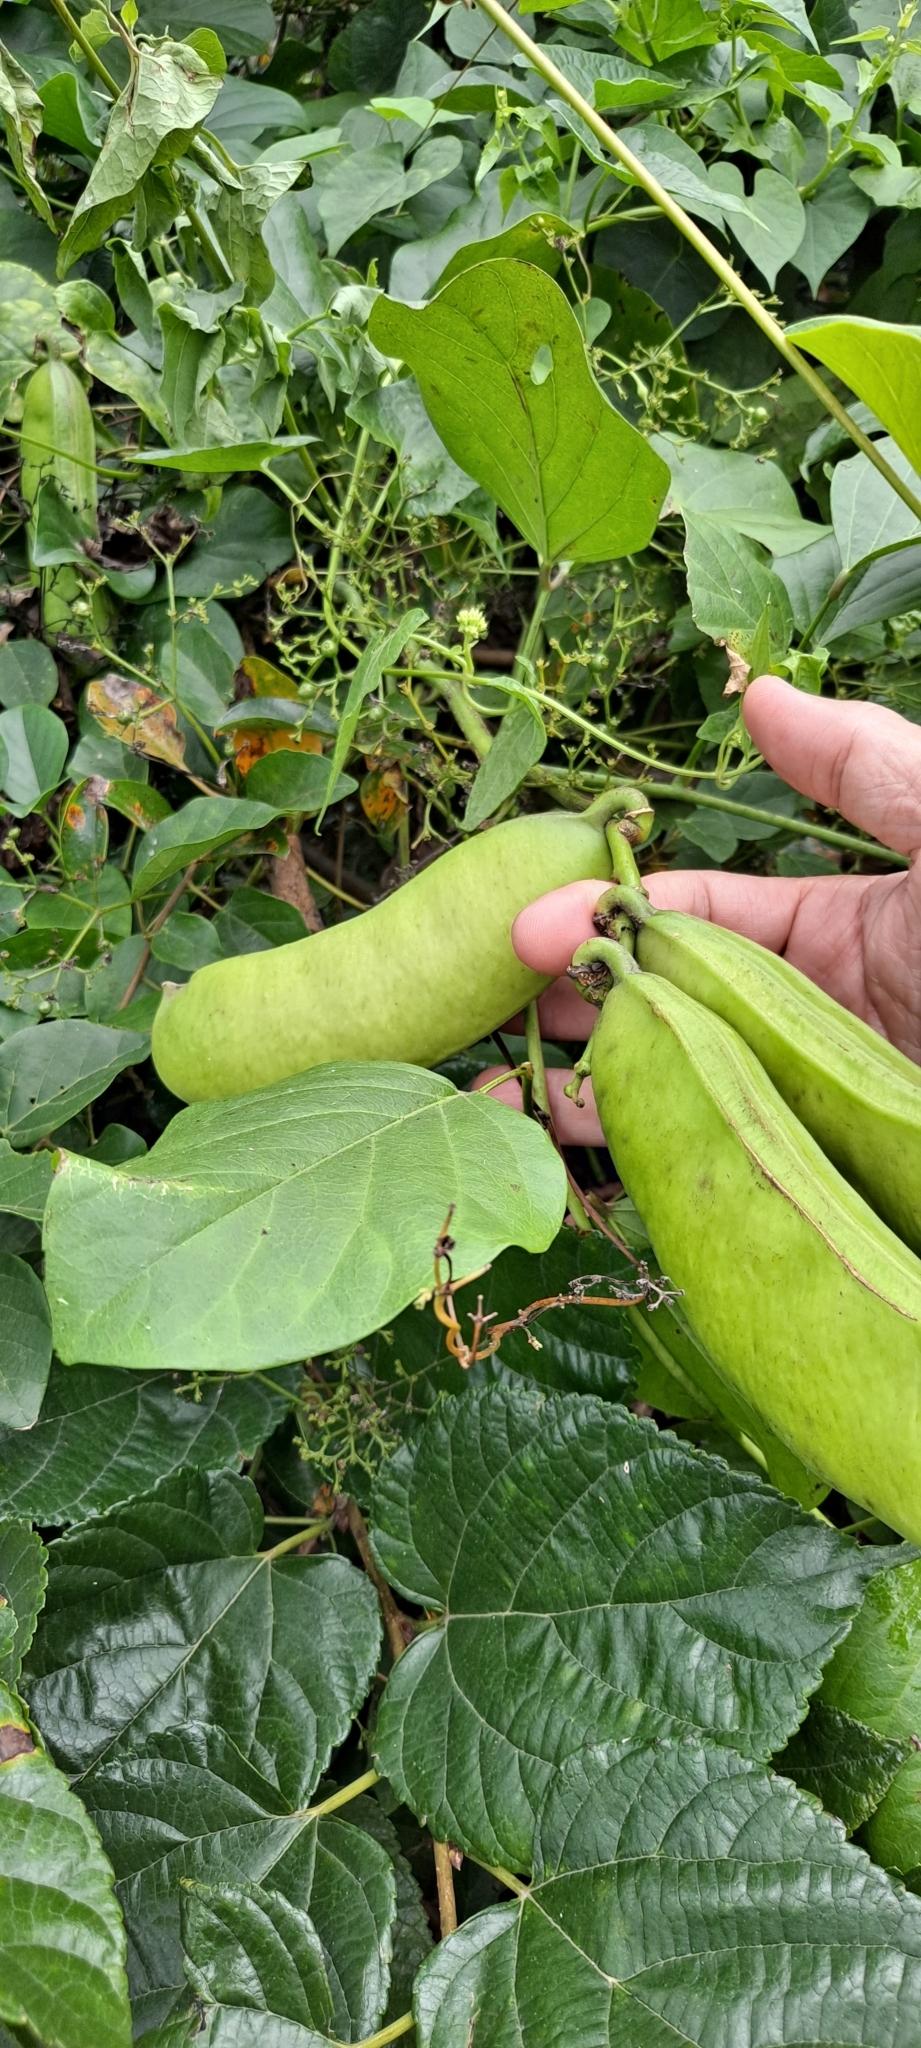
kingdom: Plantae
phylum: Tracheophyta
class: Magnoliopsida
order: Fabales
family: Fabaceae
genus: Canavalia
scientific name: Canavalia rosea
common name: Beach-bean
